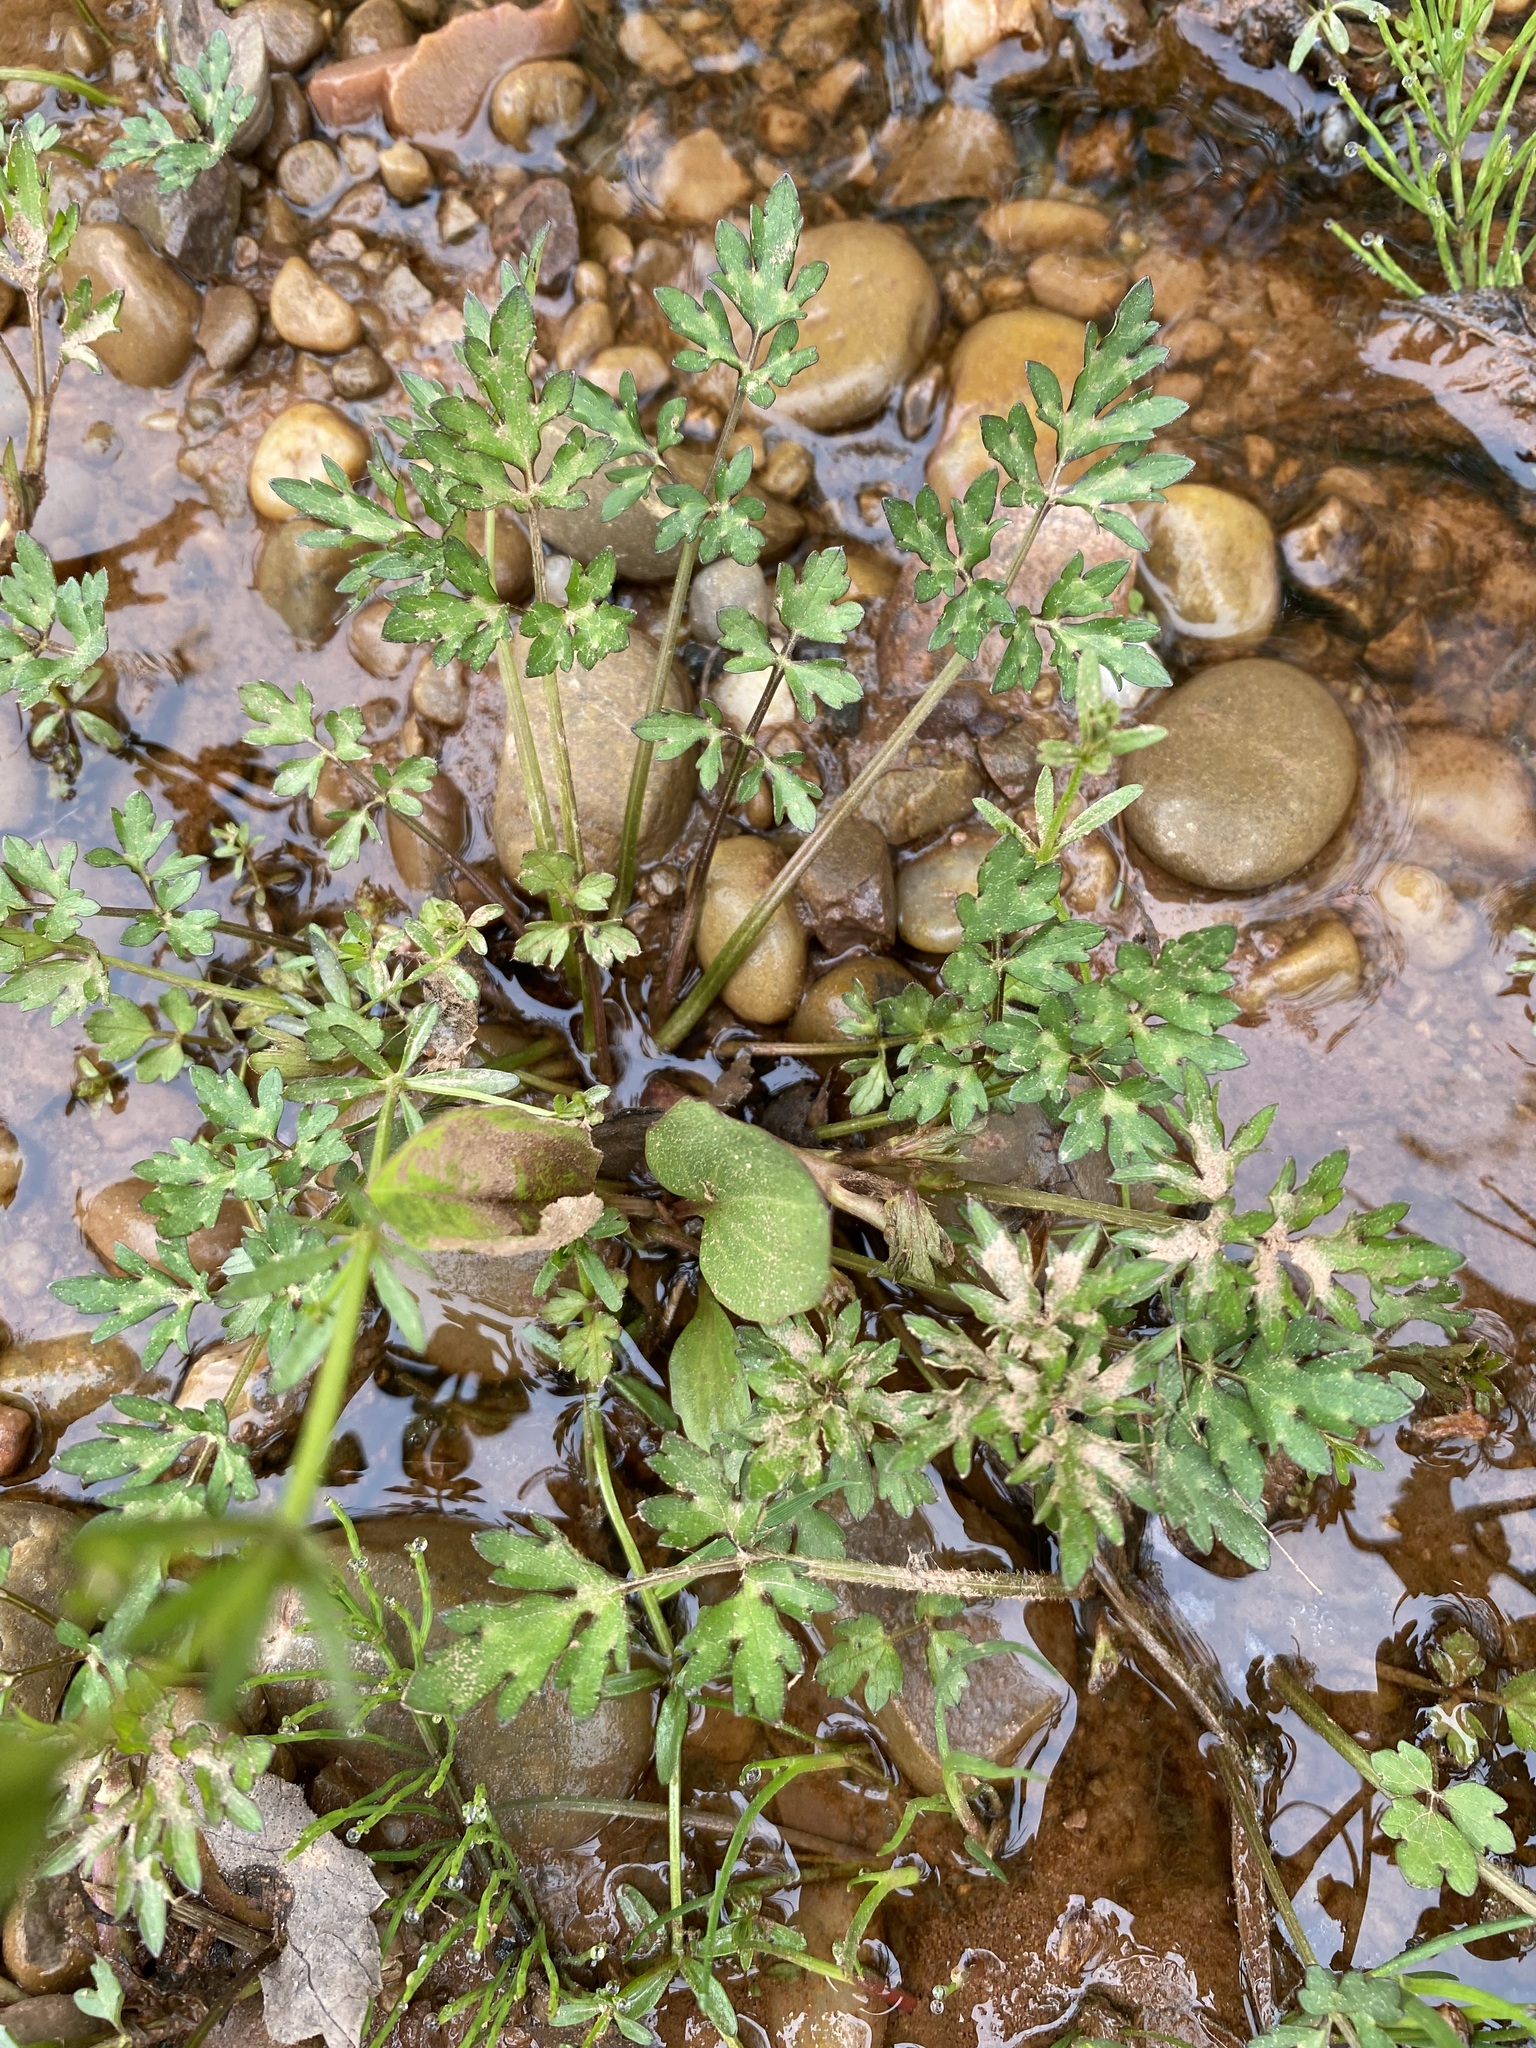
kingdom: Plantae
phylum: Tracheophyta
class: Magnoliopsida
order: Ranunculales
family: Ranunculaceae
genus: Ranunculus
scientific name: Ranunculus repens
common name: Creeping buttercup
